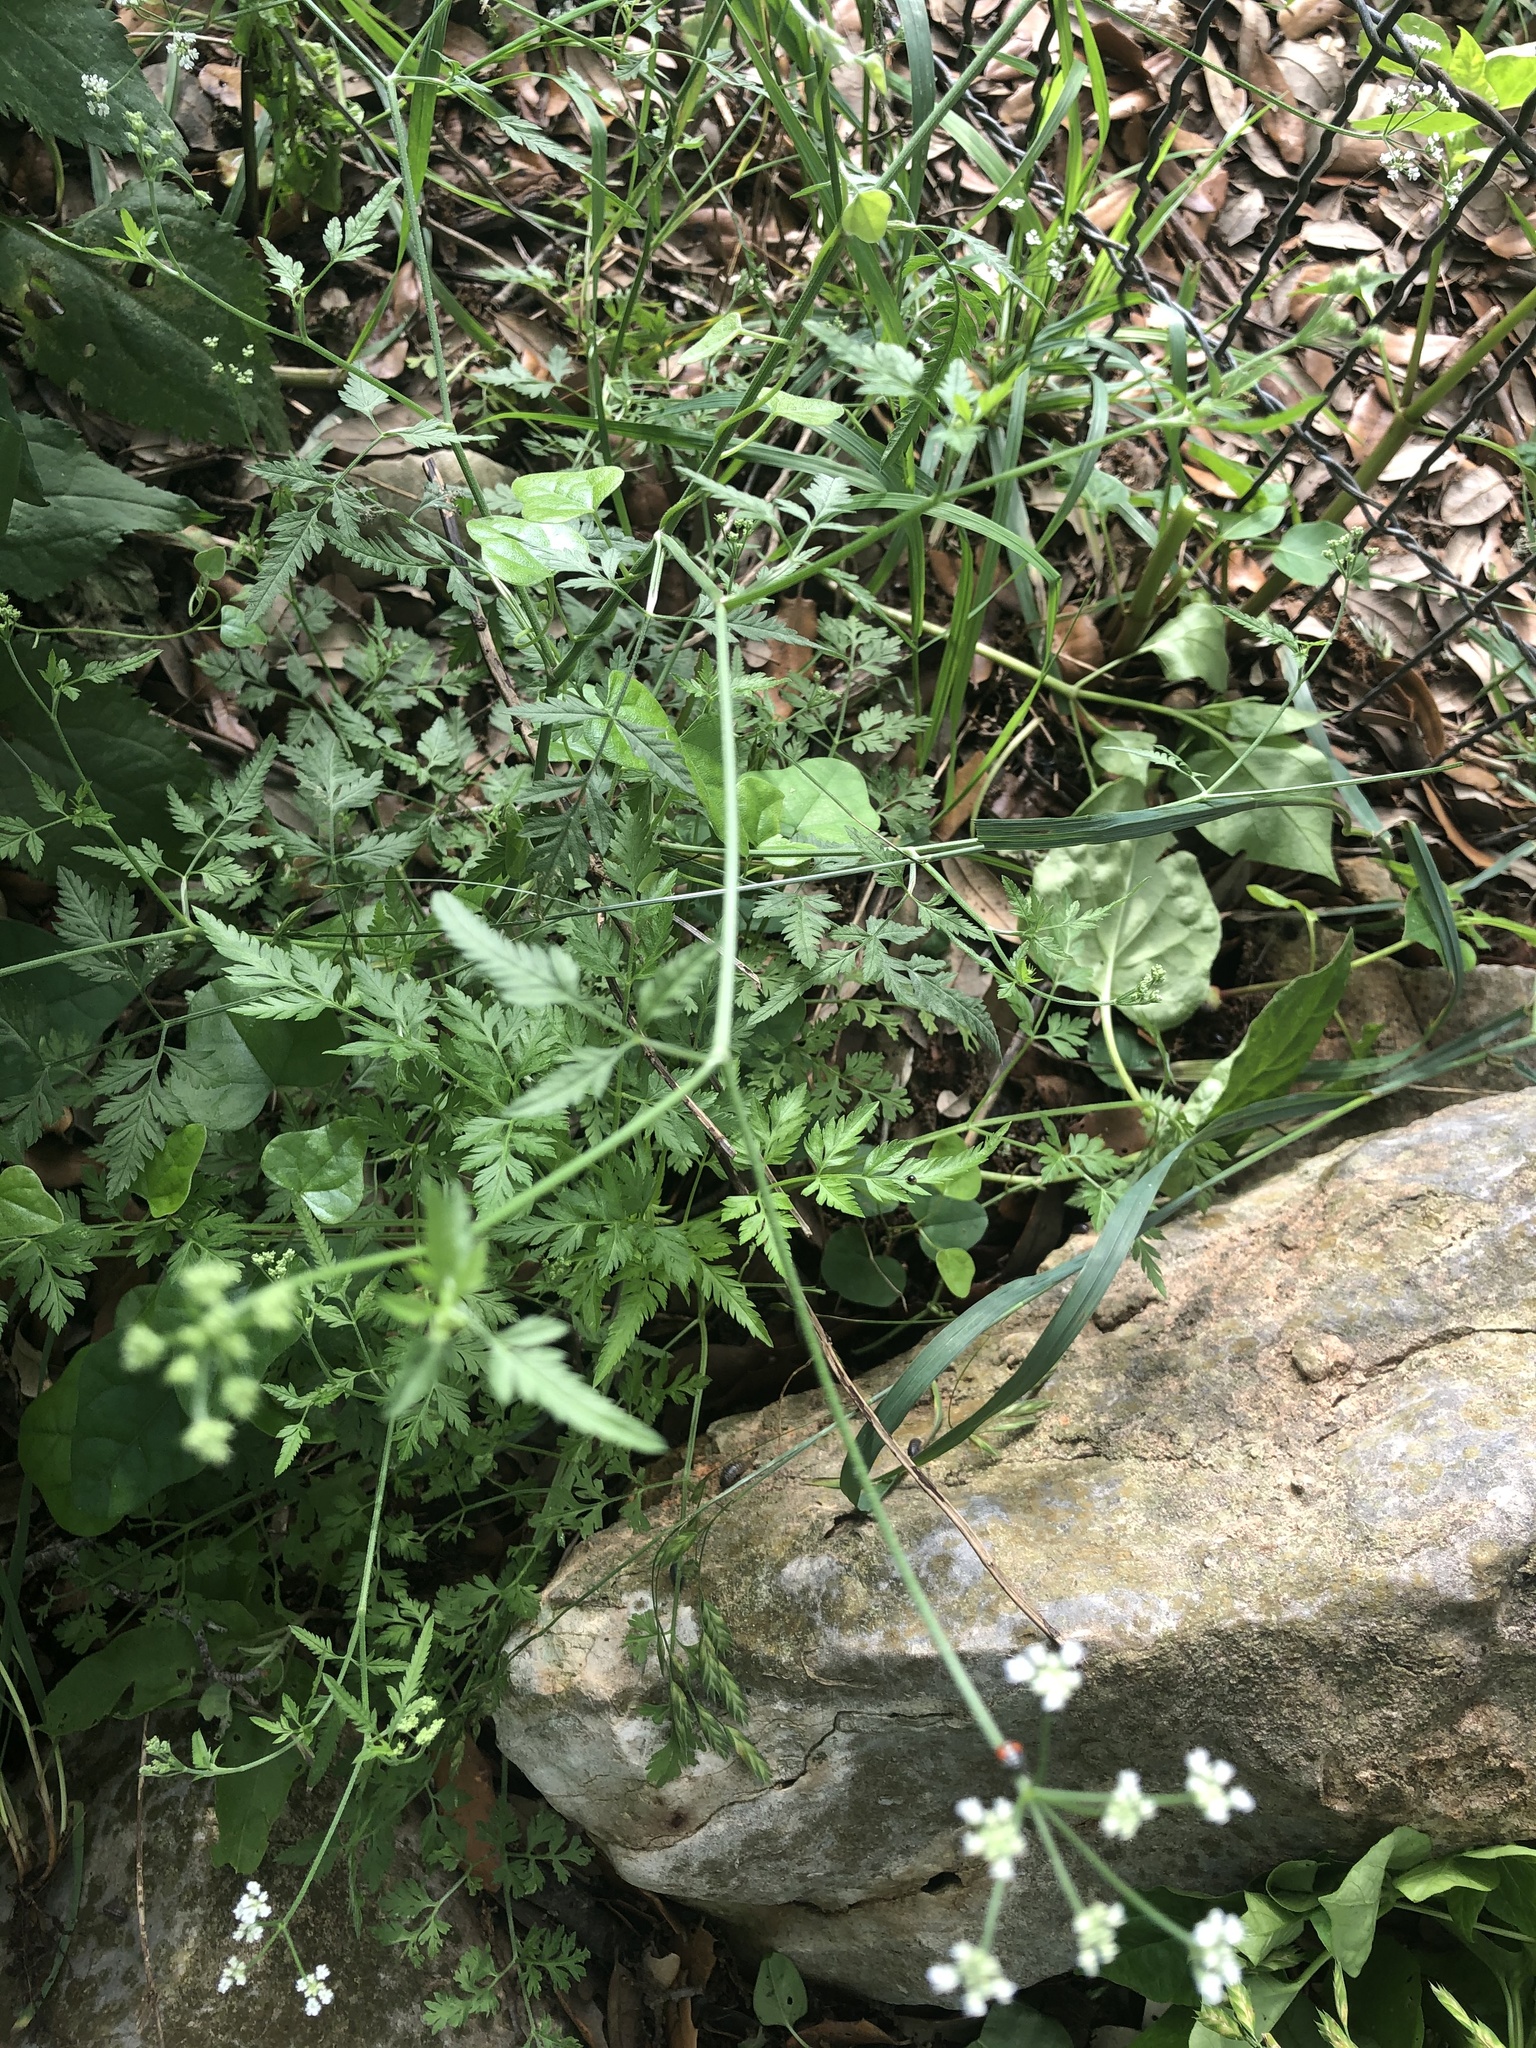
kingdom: Plantae
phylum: Tracheophyta
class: Magnoliopsida
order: Apiales
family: Apiaceae
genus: Torilis
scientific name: Torilis arvensis
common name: Spreading hedge-parsley
